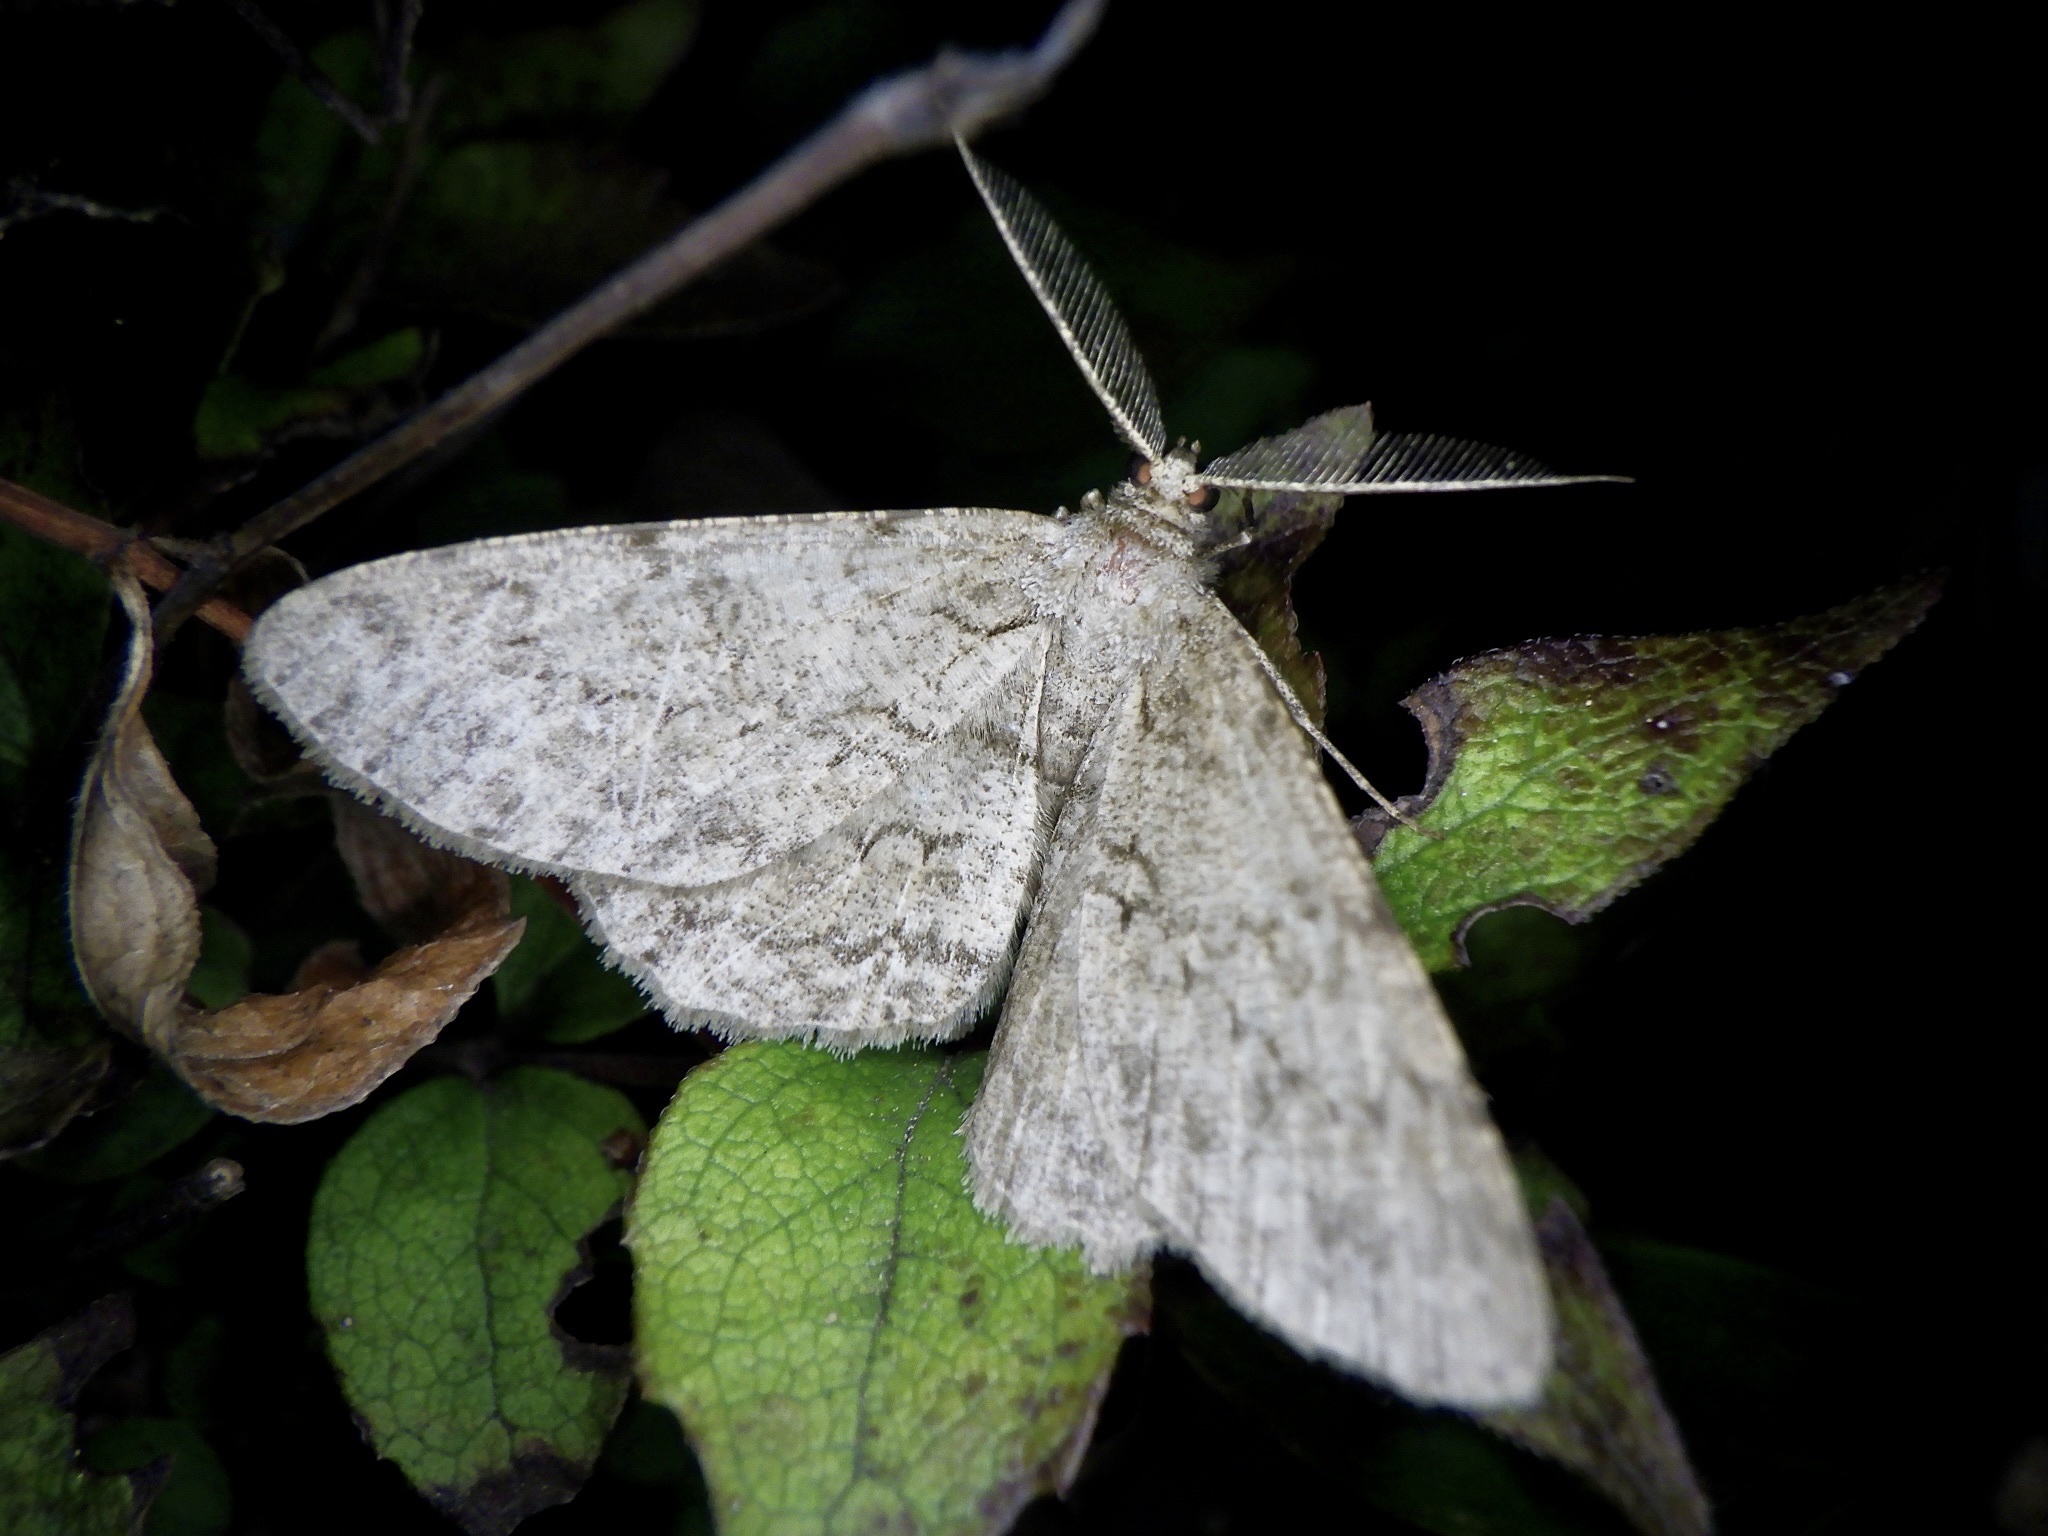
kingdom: Animalia
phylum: Arthropoda
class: Insecta
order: Lepidoptera
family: Geometridae
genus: Hypomecis
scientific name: Hypomecis punctinalis
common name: Pale oak beauty
